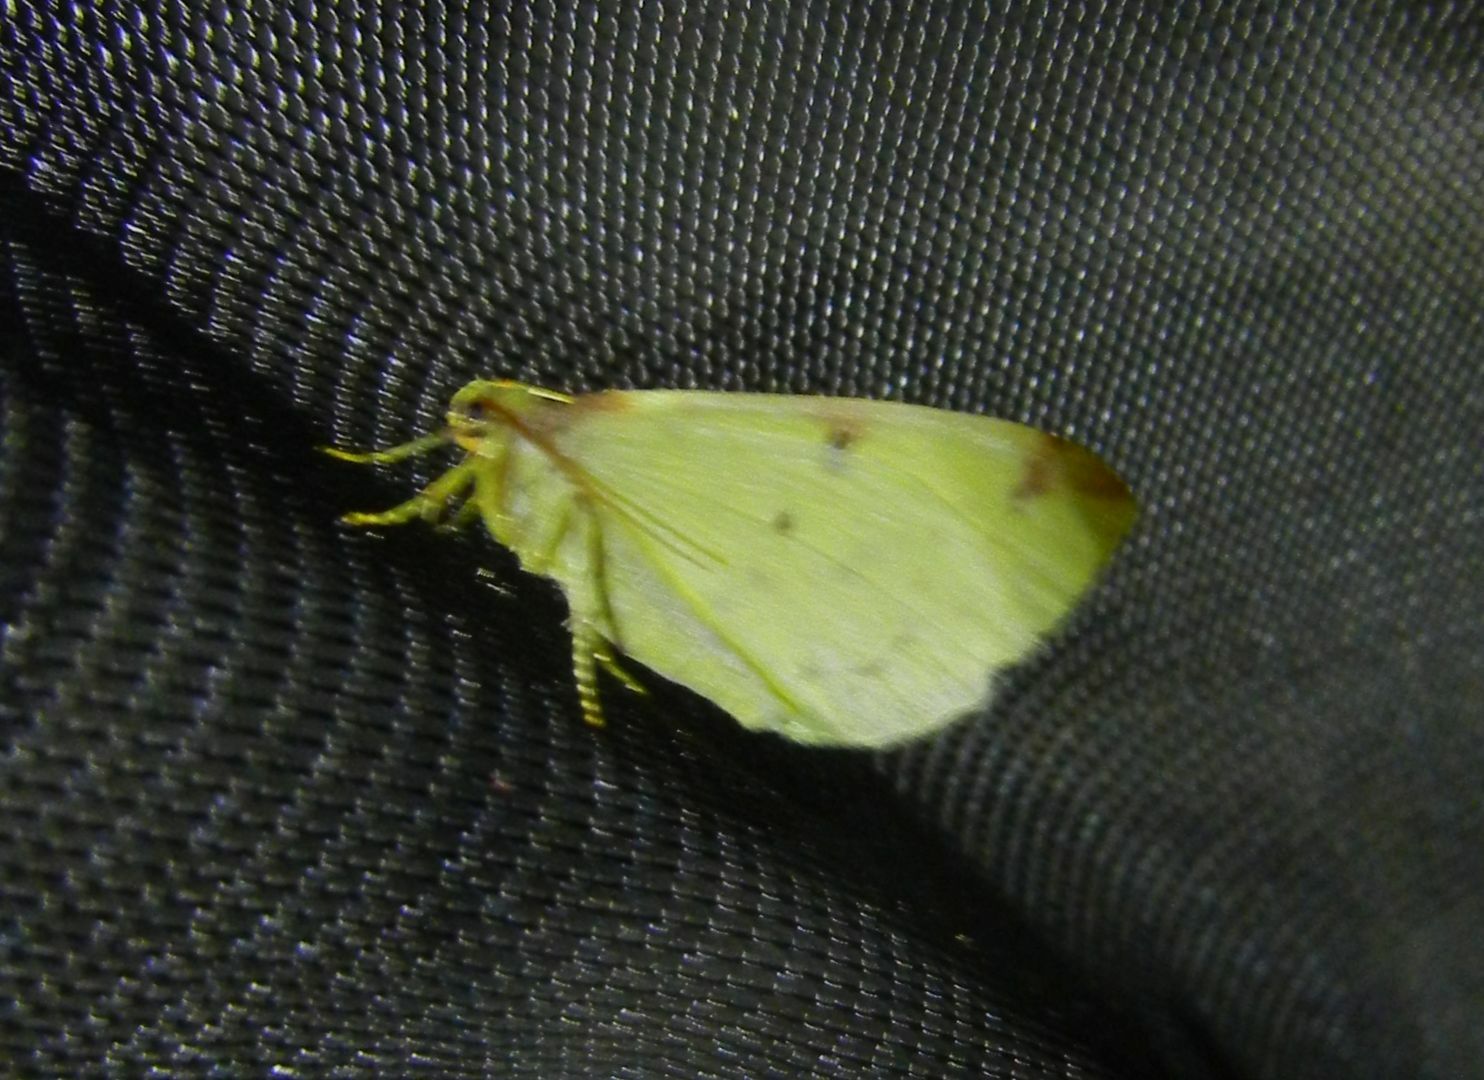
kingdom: Animalia
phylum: Arthropoda
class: Insecta
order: Lepidoptera
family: Geometridae
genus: Opisthograptis
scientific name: Opisthograptis luteolata
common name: Brimstone moth
